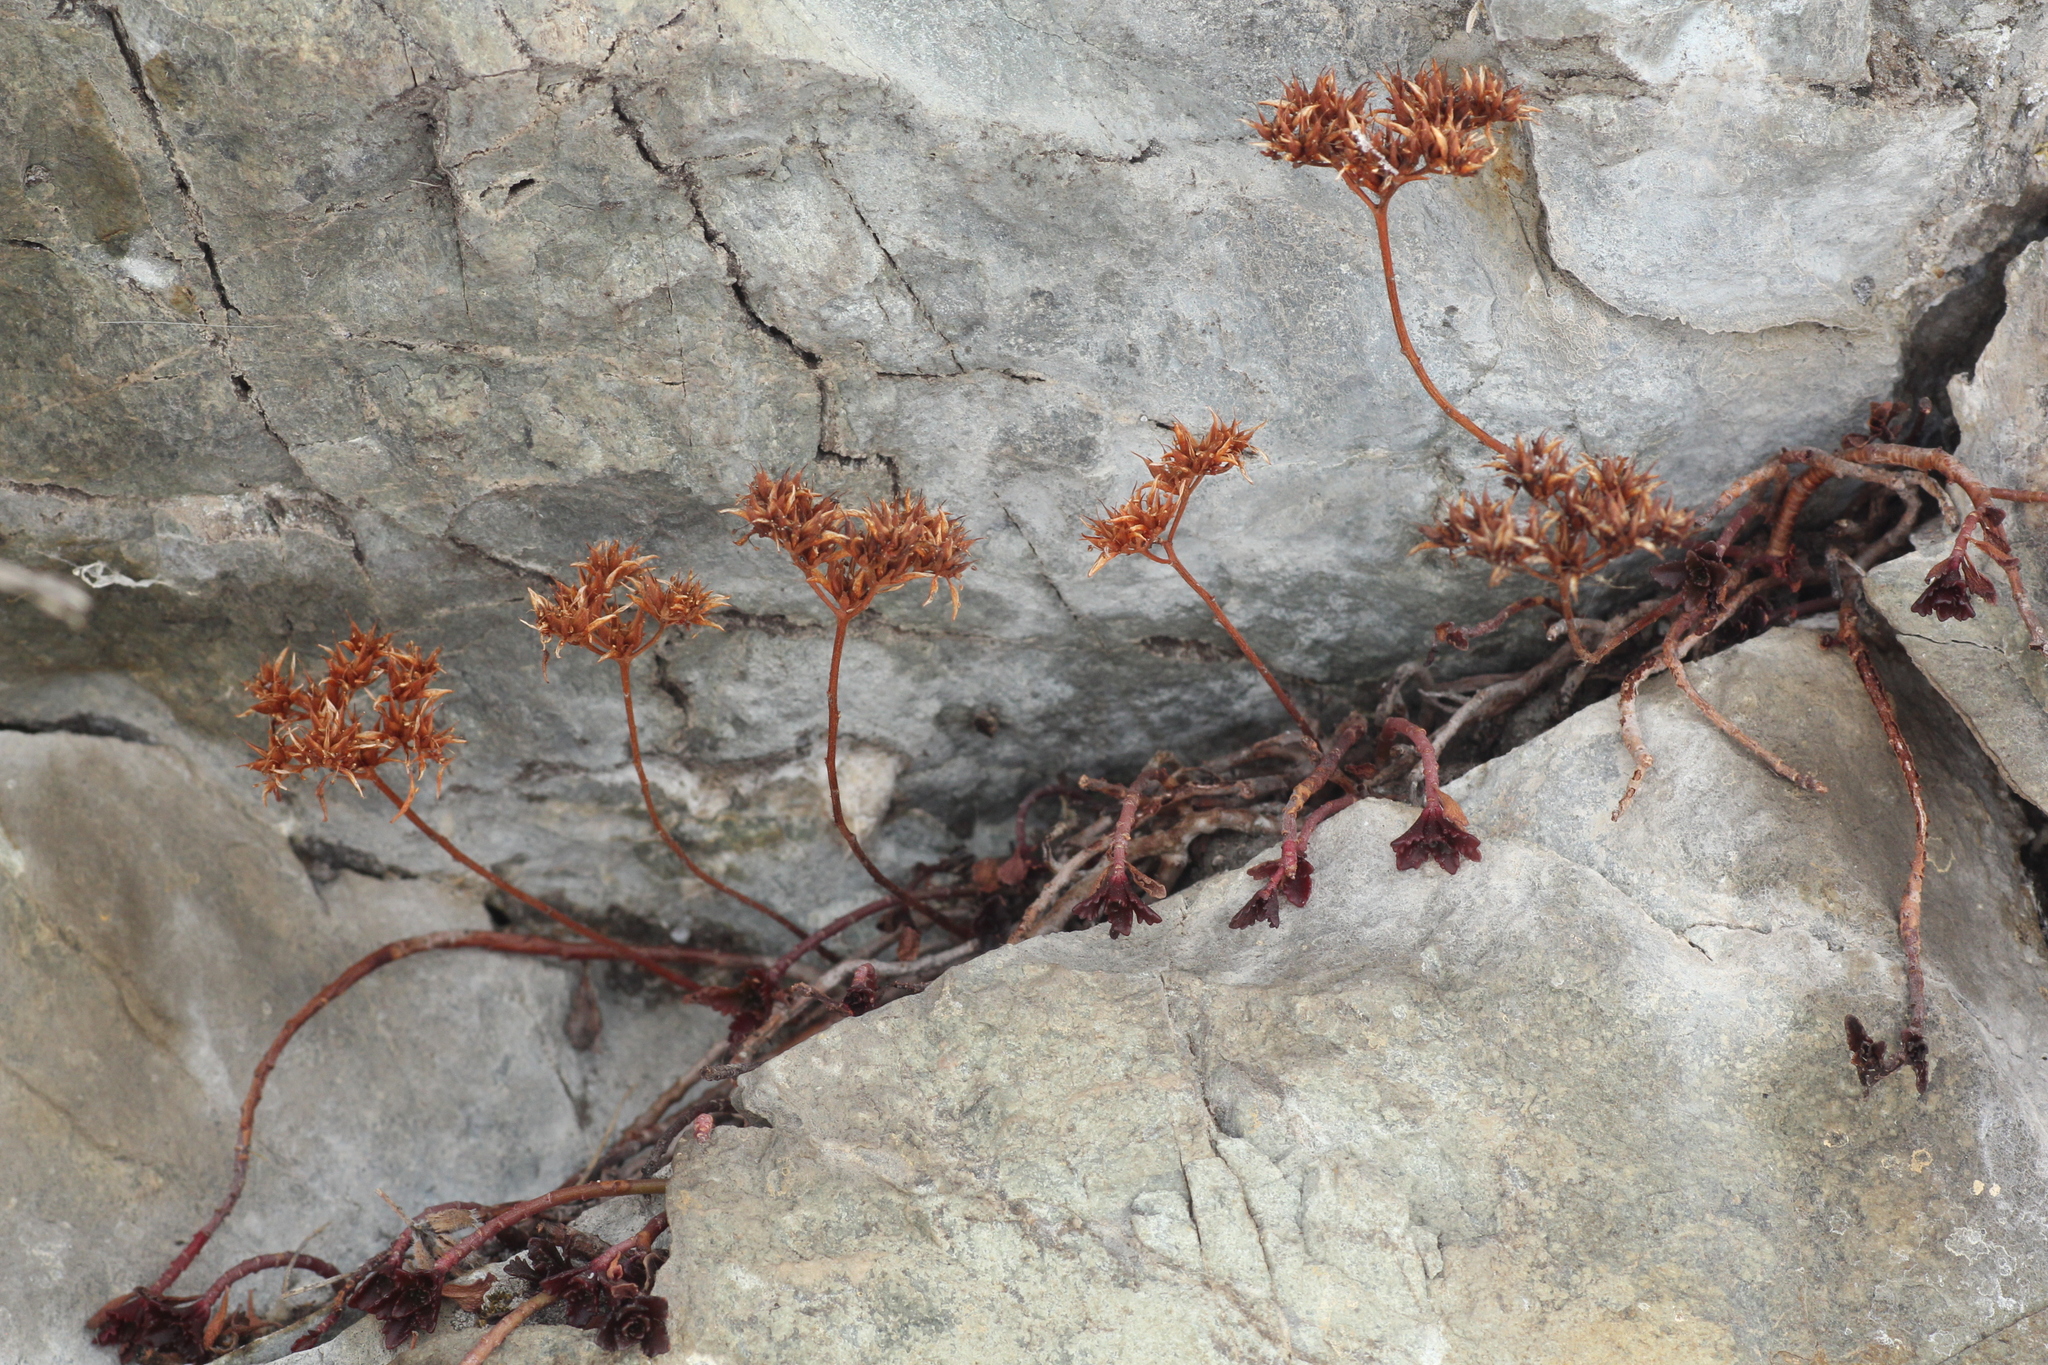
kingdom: Plantae
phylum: Tracheophyta
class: Magnoliopsida
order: Saxifragales
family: Crassulaceae
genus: Phedimus
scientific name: Phedimus hybridus
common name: Hybrid stonecrop
